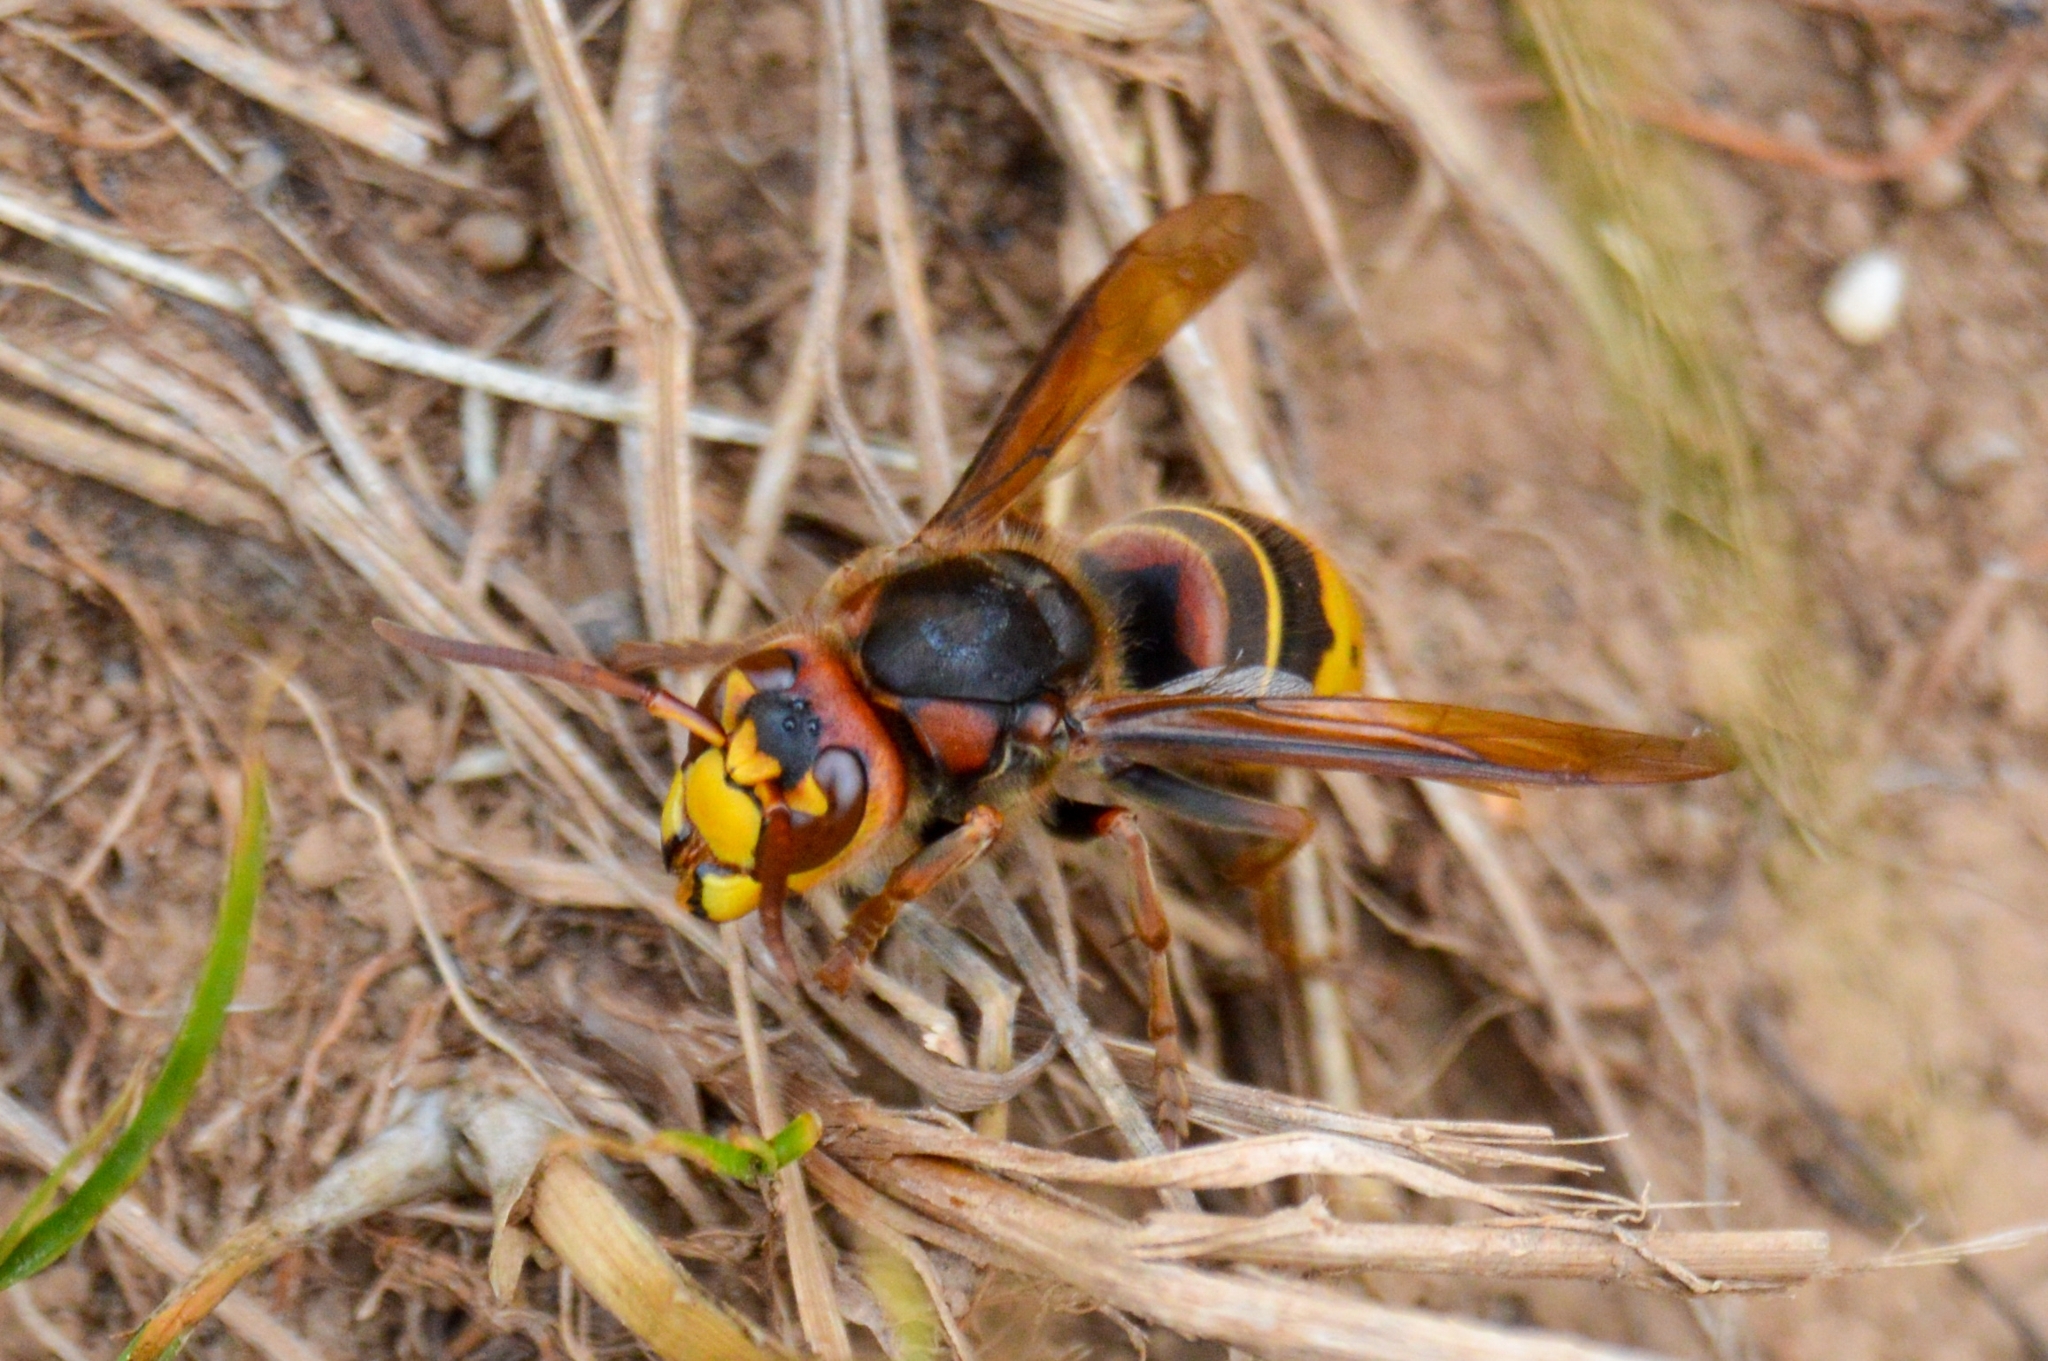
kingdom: Animalia
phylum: Arthropoda
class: Insecta
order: Hymenoptera
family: Vespidae
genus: Vespa
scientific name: Vespa crabro
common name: Hornet
